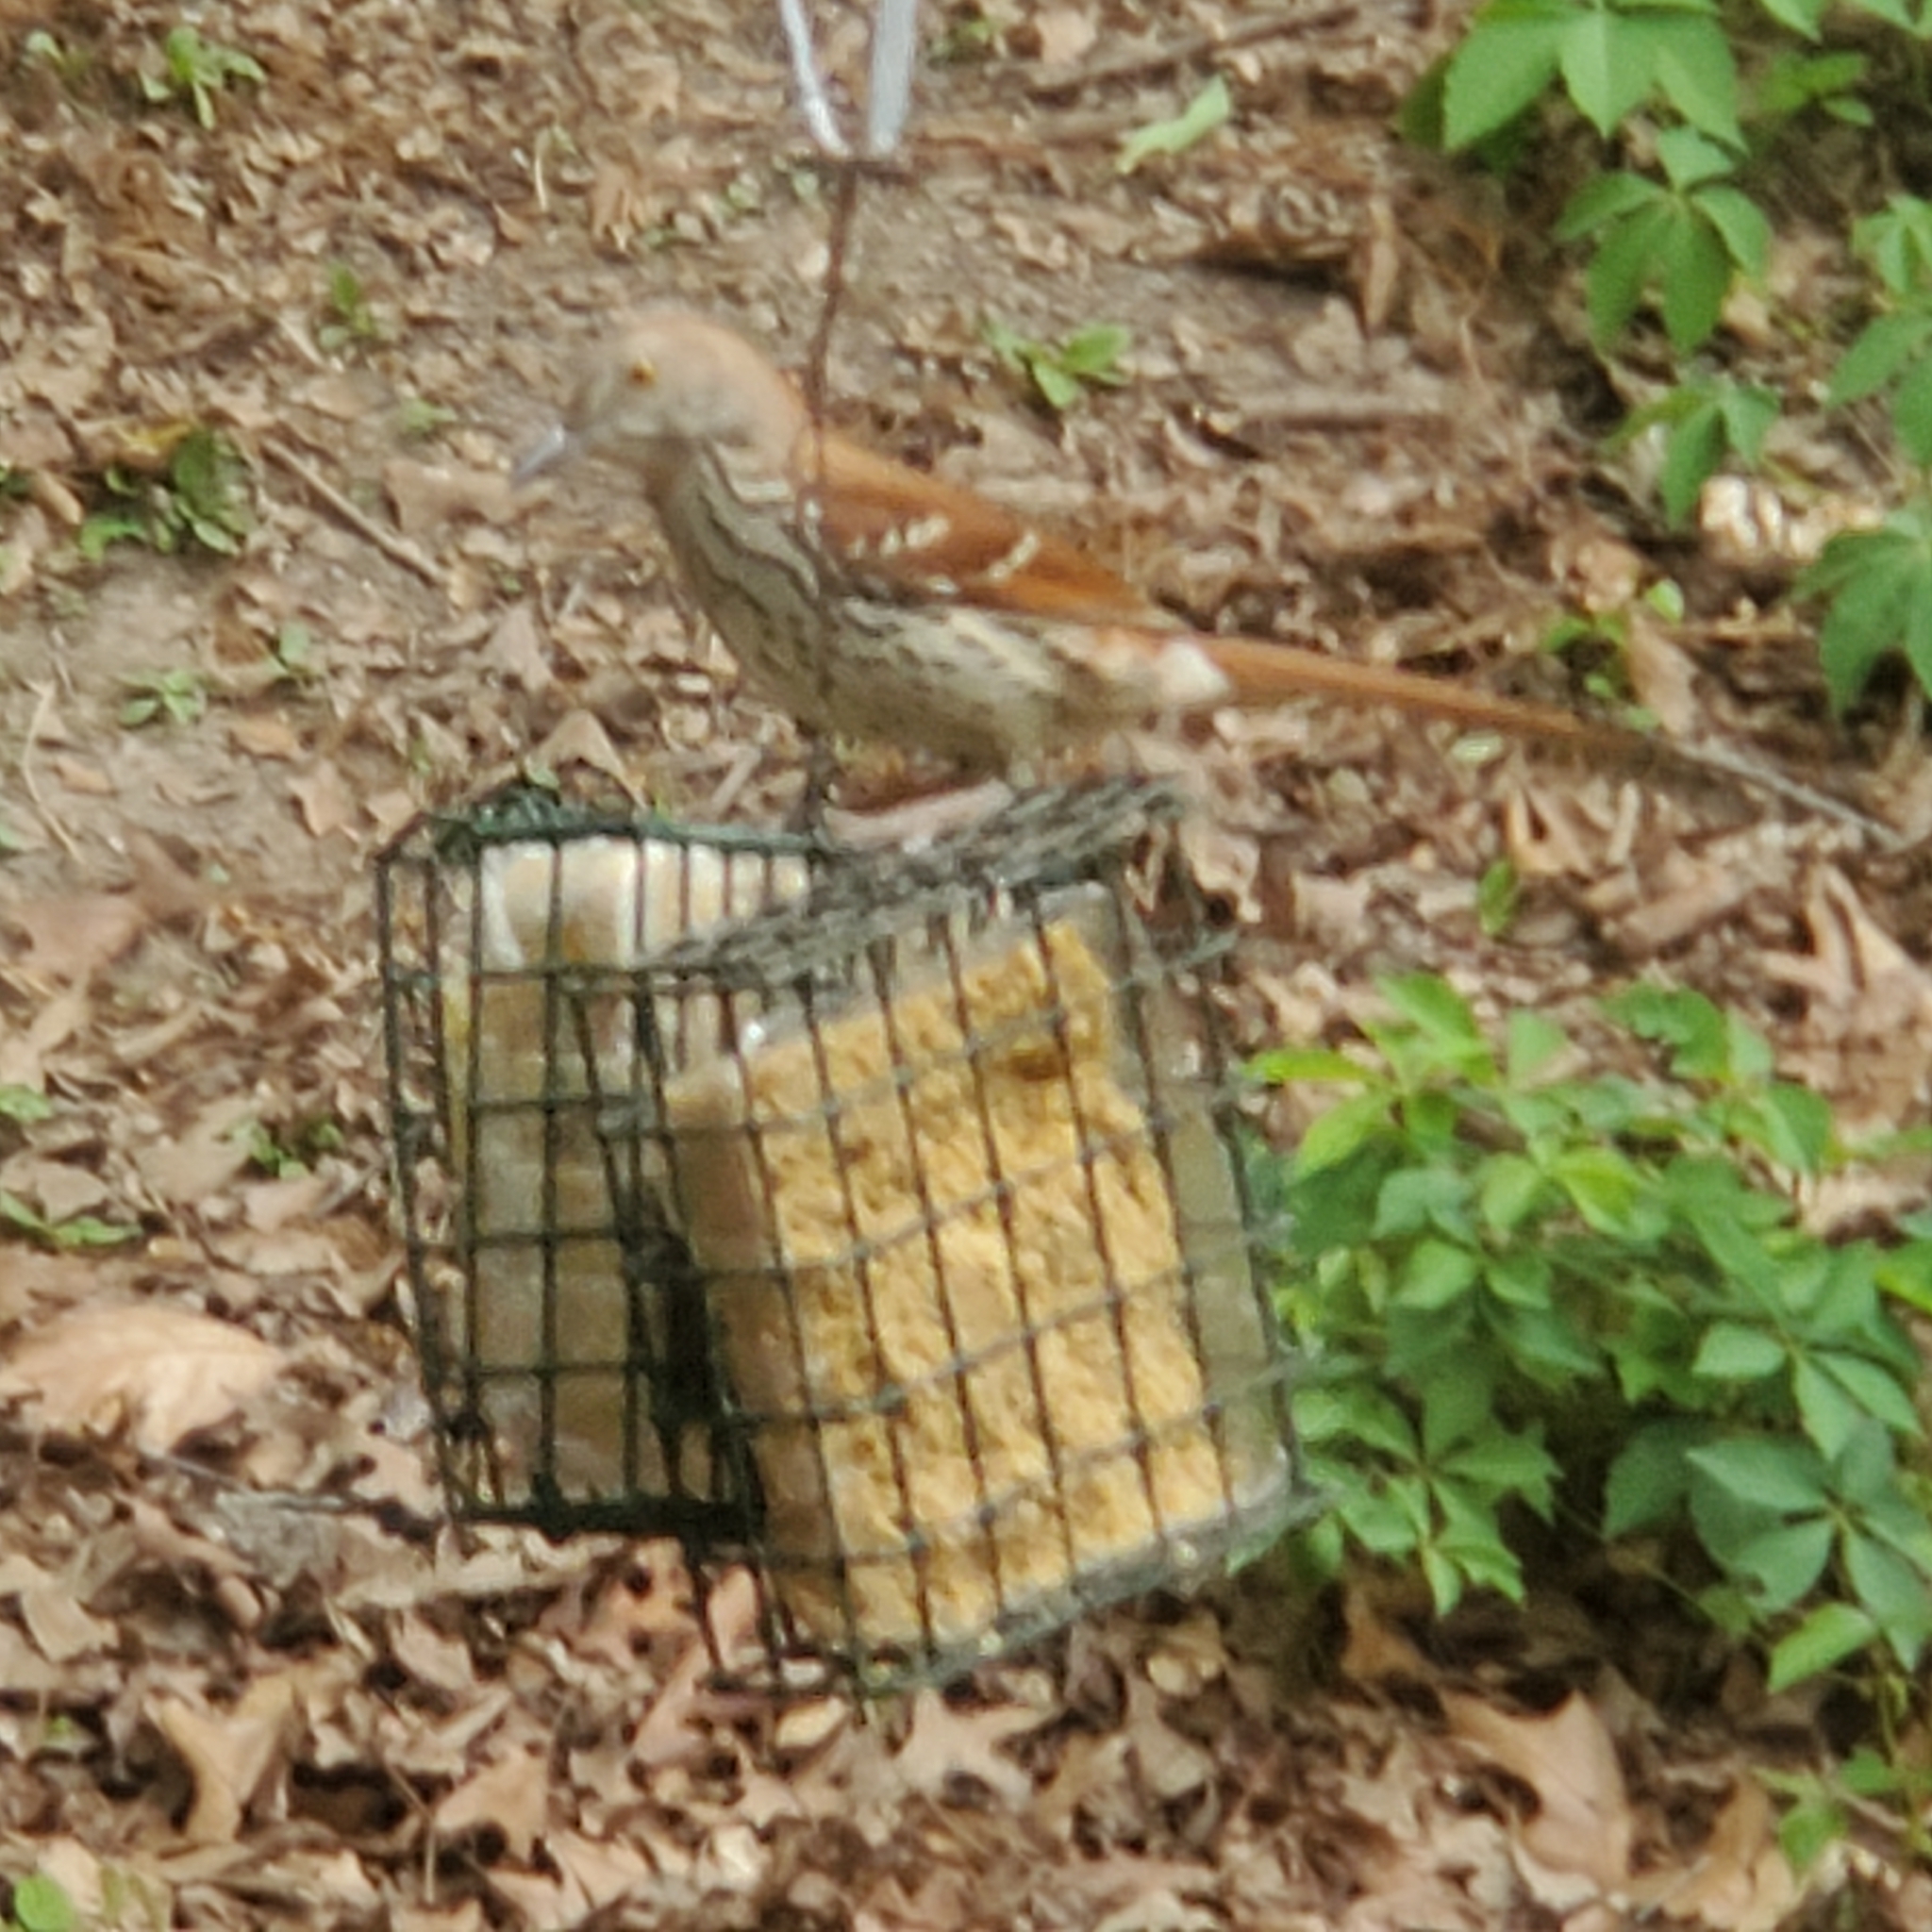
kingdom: Animalia
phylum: Chordata
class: Aves
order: Passeriformes
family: Mimidae
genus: Toxostoma
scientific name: Toxostoma rufum
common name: Brown thrasher
